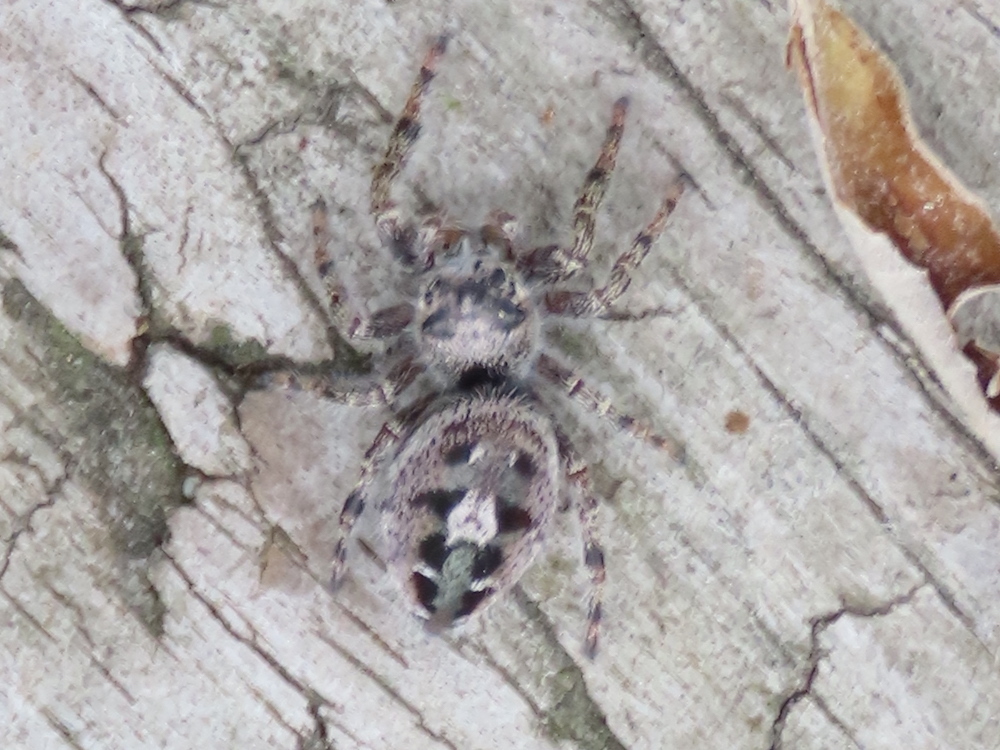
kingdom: Animalia
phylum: Arthropoda
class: Arachnida
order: Araneae
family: Salticidae
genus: Phidippus
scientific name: Phidippus putnami
